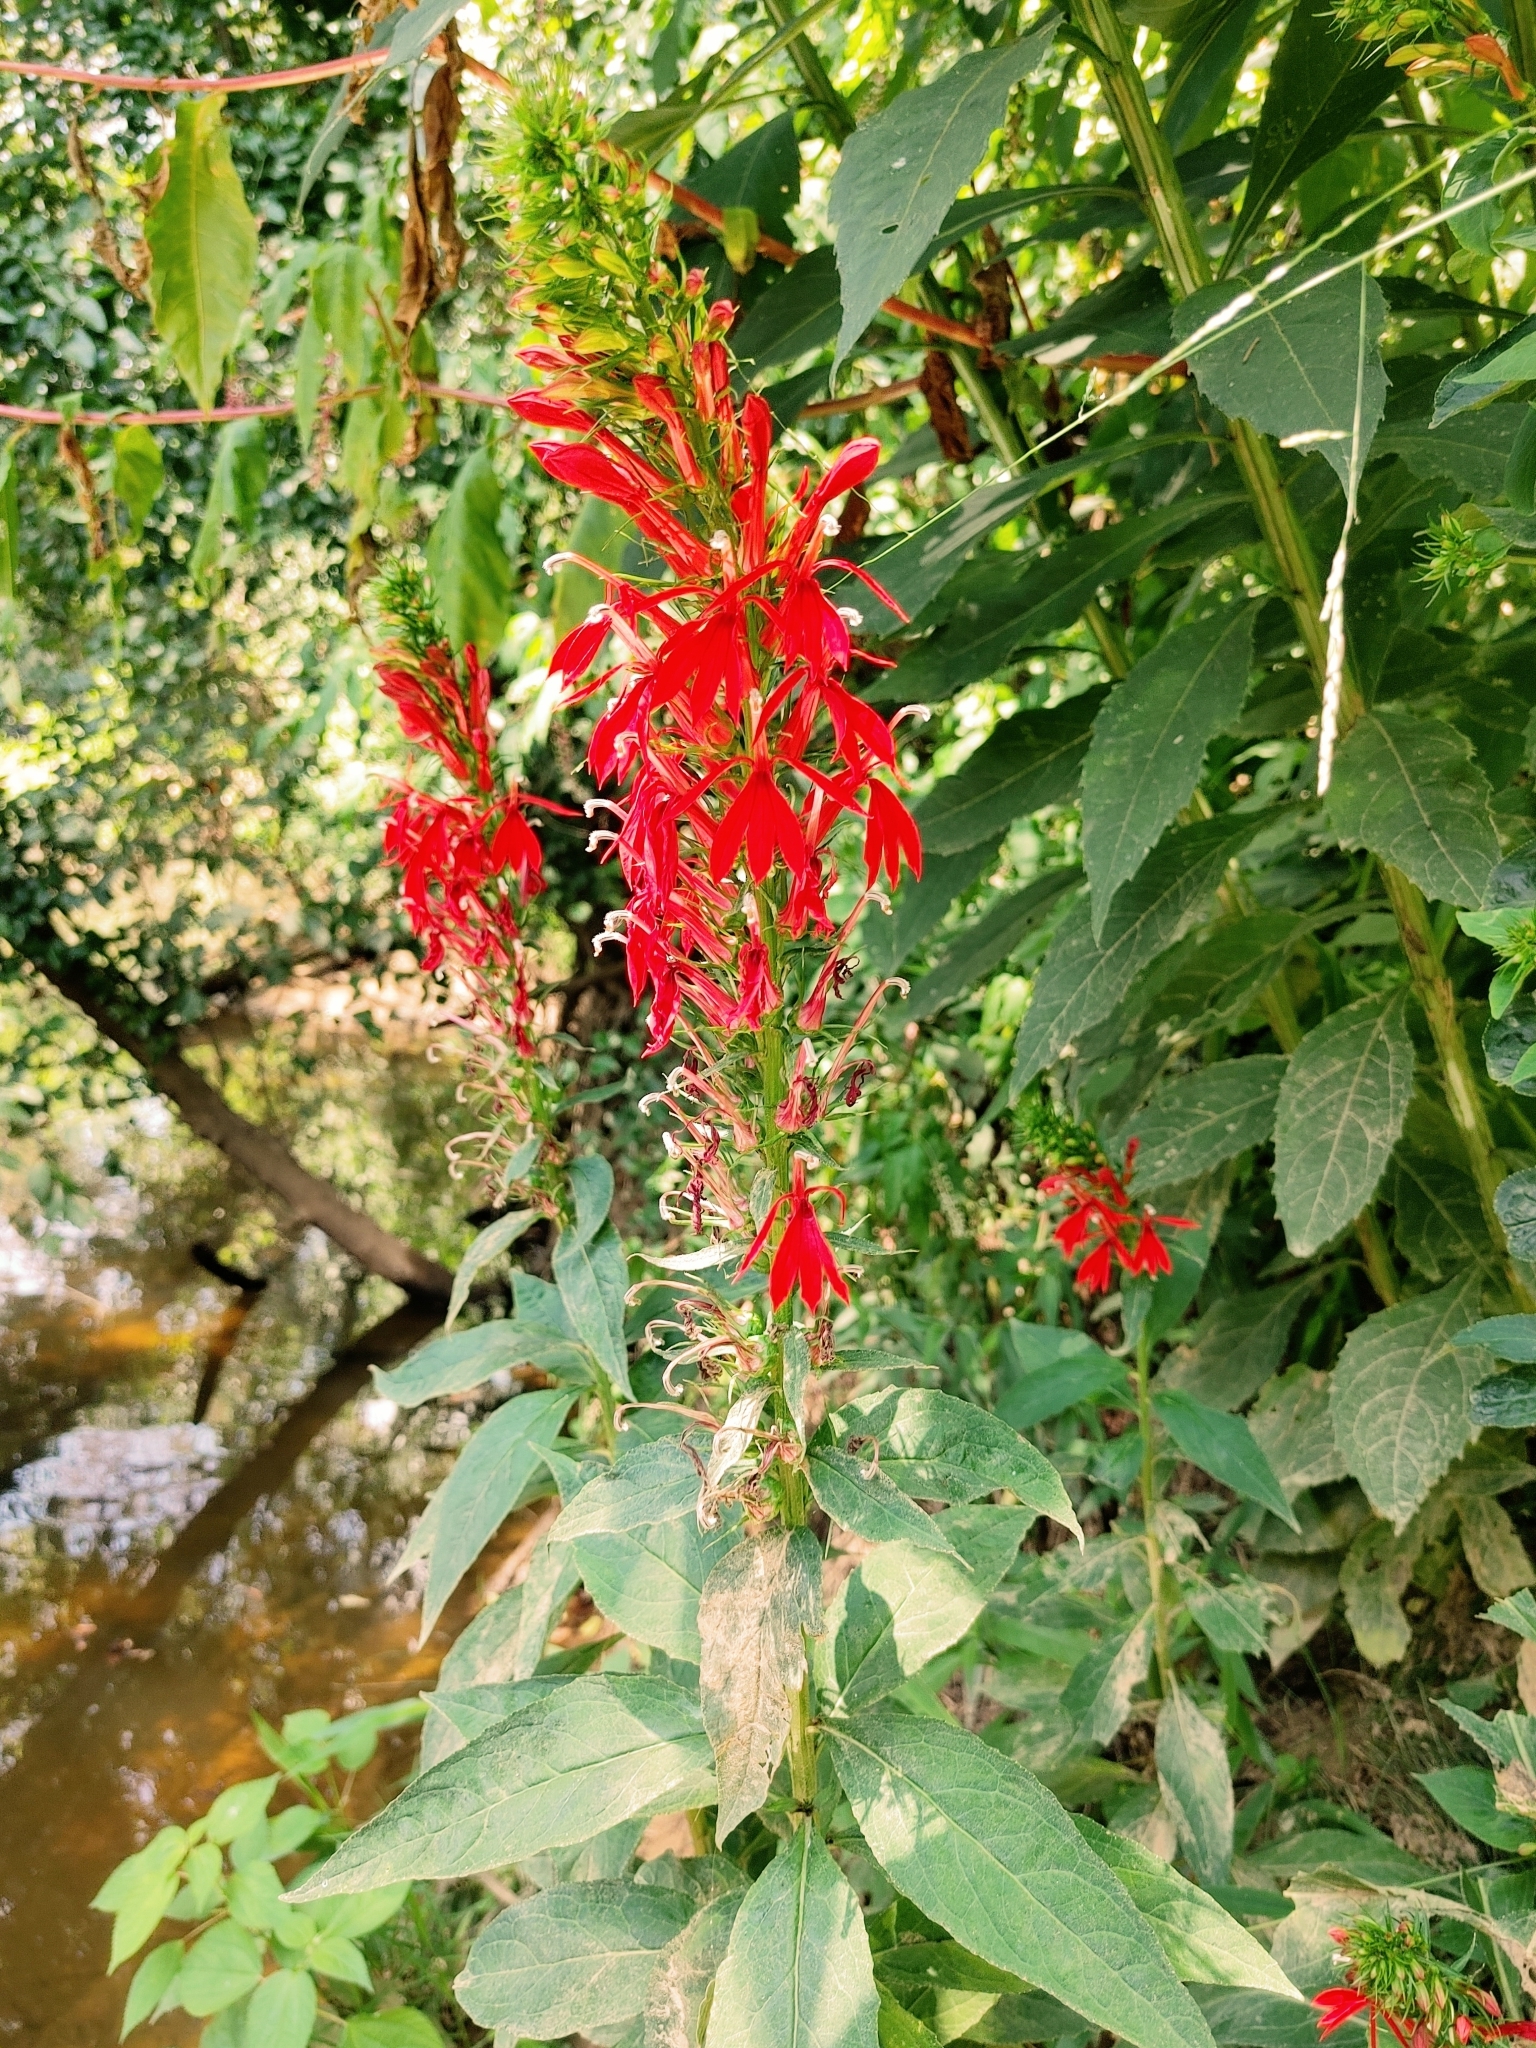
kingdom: Plantae
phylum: Tracheophyta
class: Magnoliopsida
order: Asterales
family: Campanulaceae
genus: Lobelia
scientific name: Lobelia cardinalis
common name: Cardinal flower
